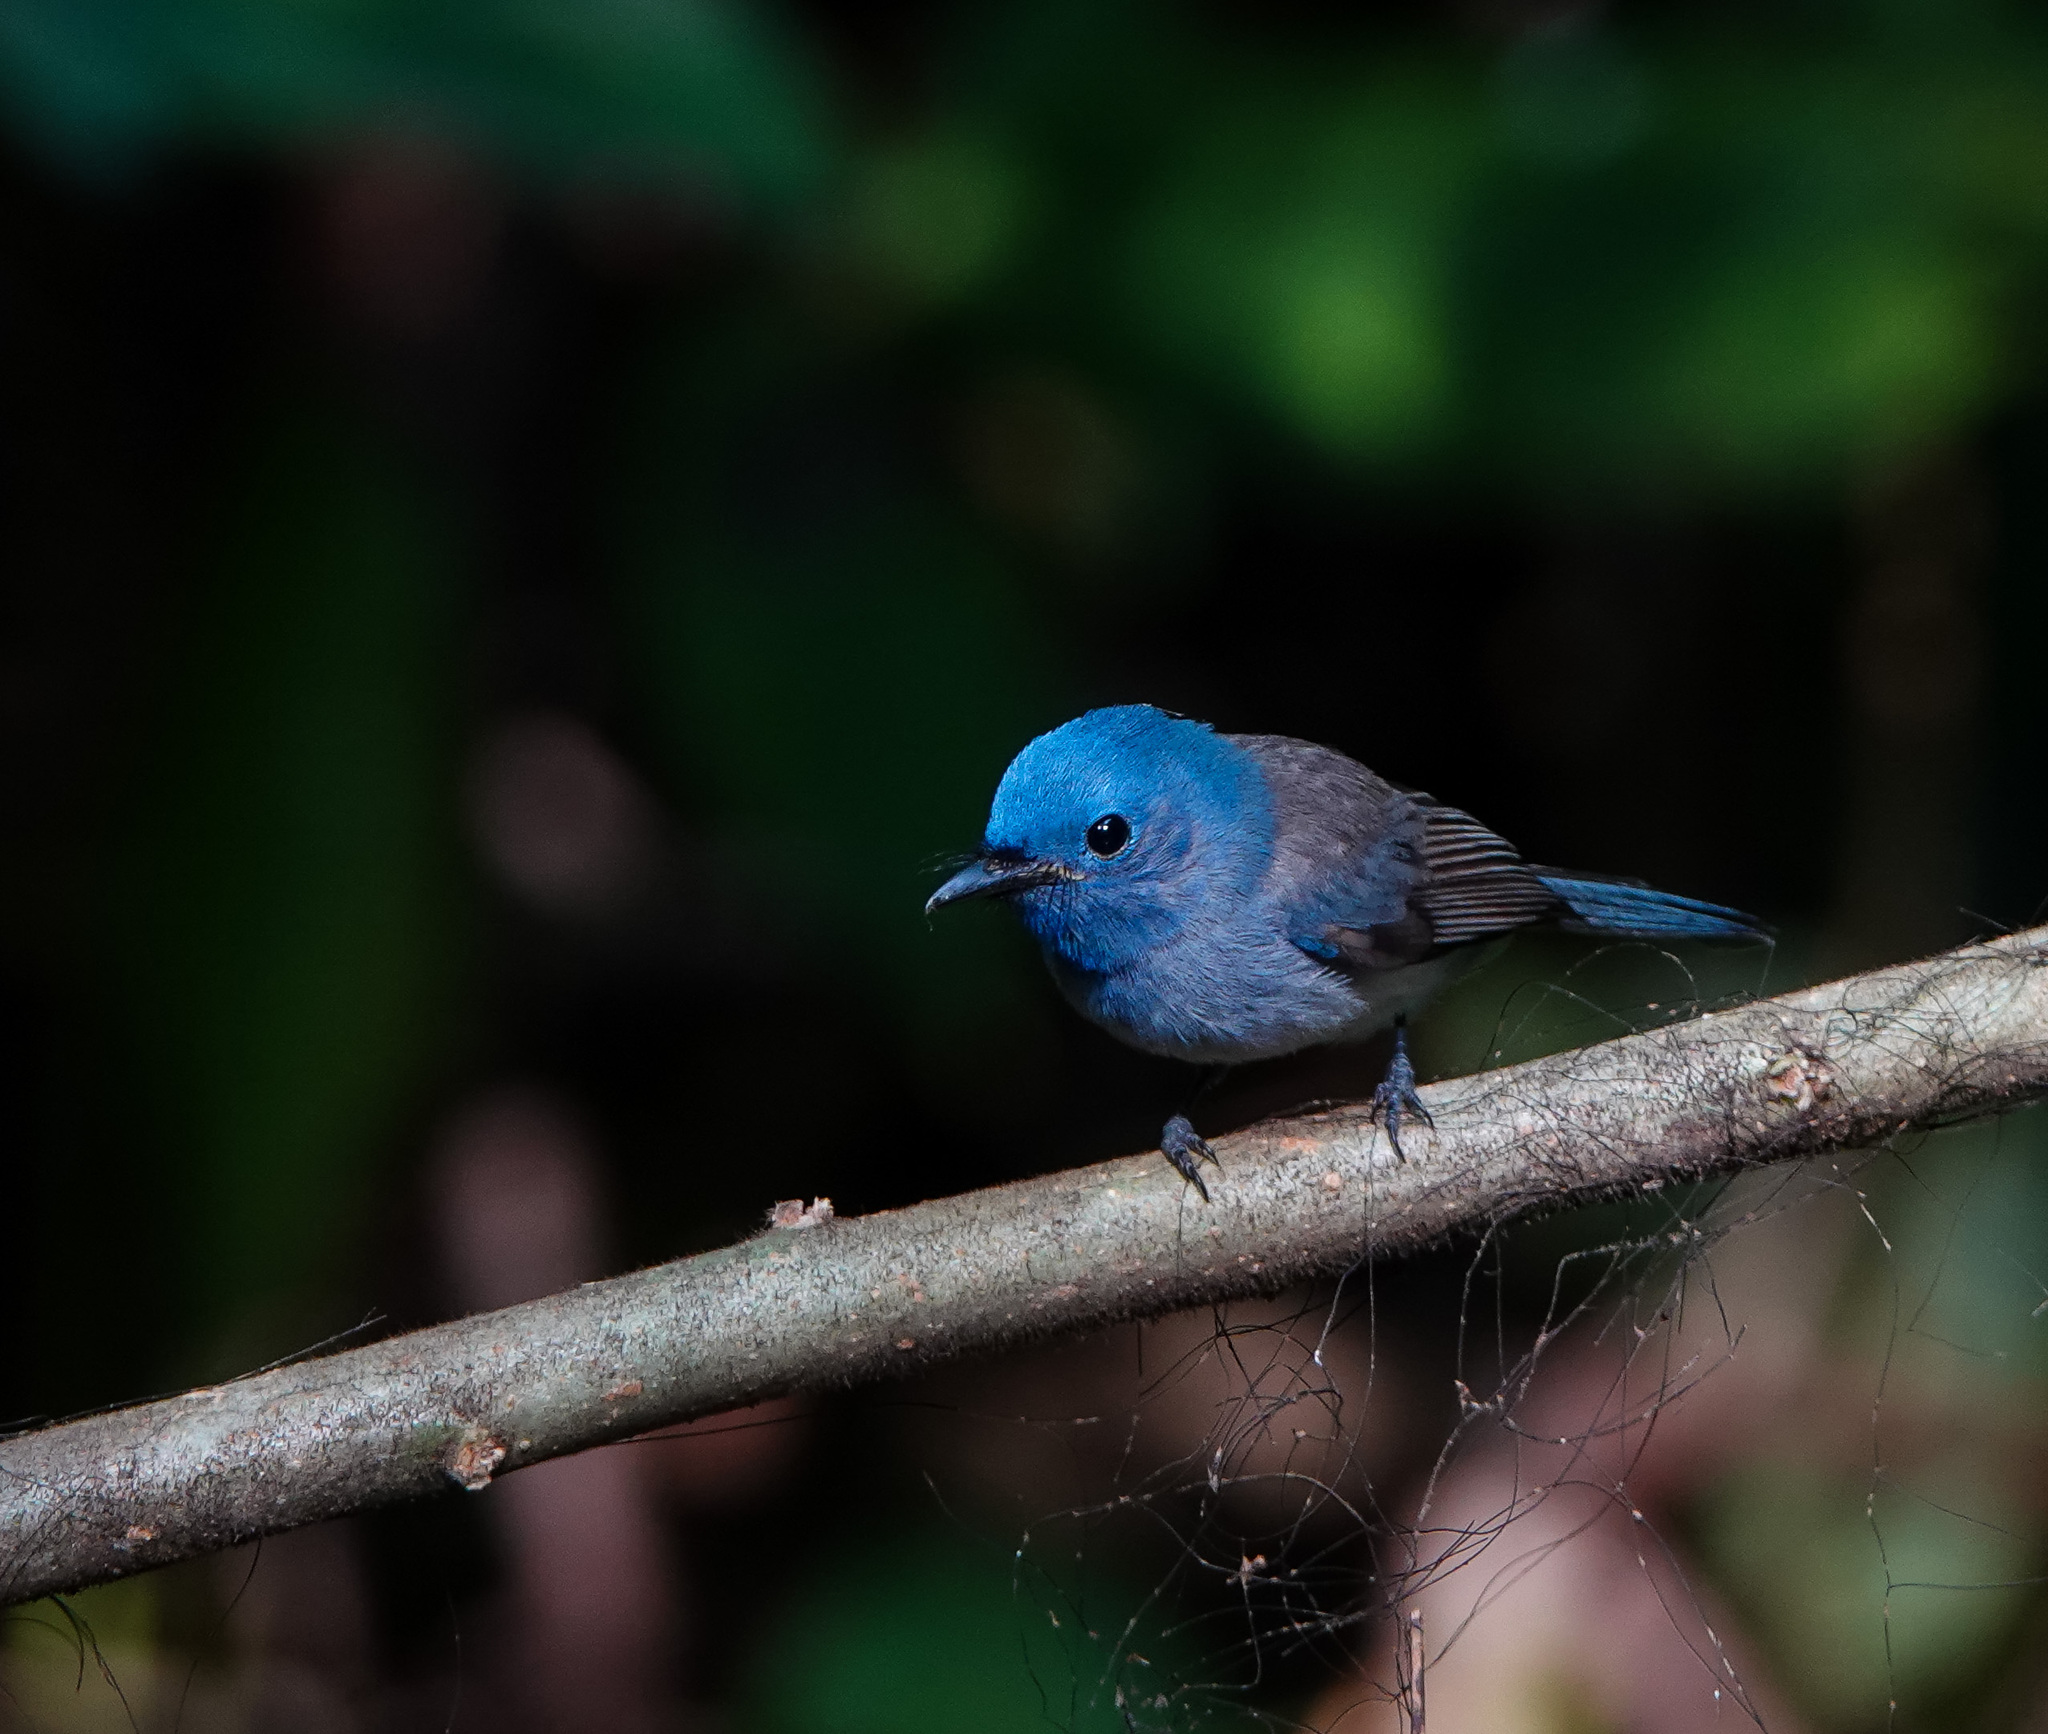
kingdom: Animalia
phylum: Chordata
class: Aves
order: Passeriformes
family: Monarchidae
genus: Hypothymis
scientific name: Hypothymis azurea
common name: Black-naped monarch
